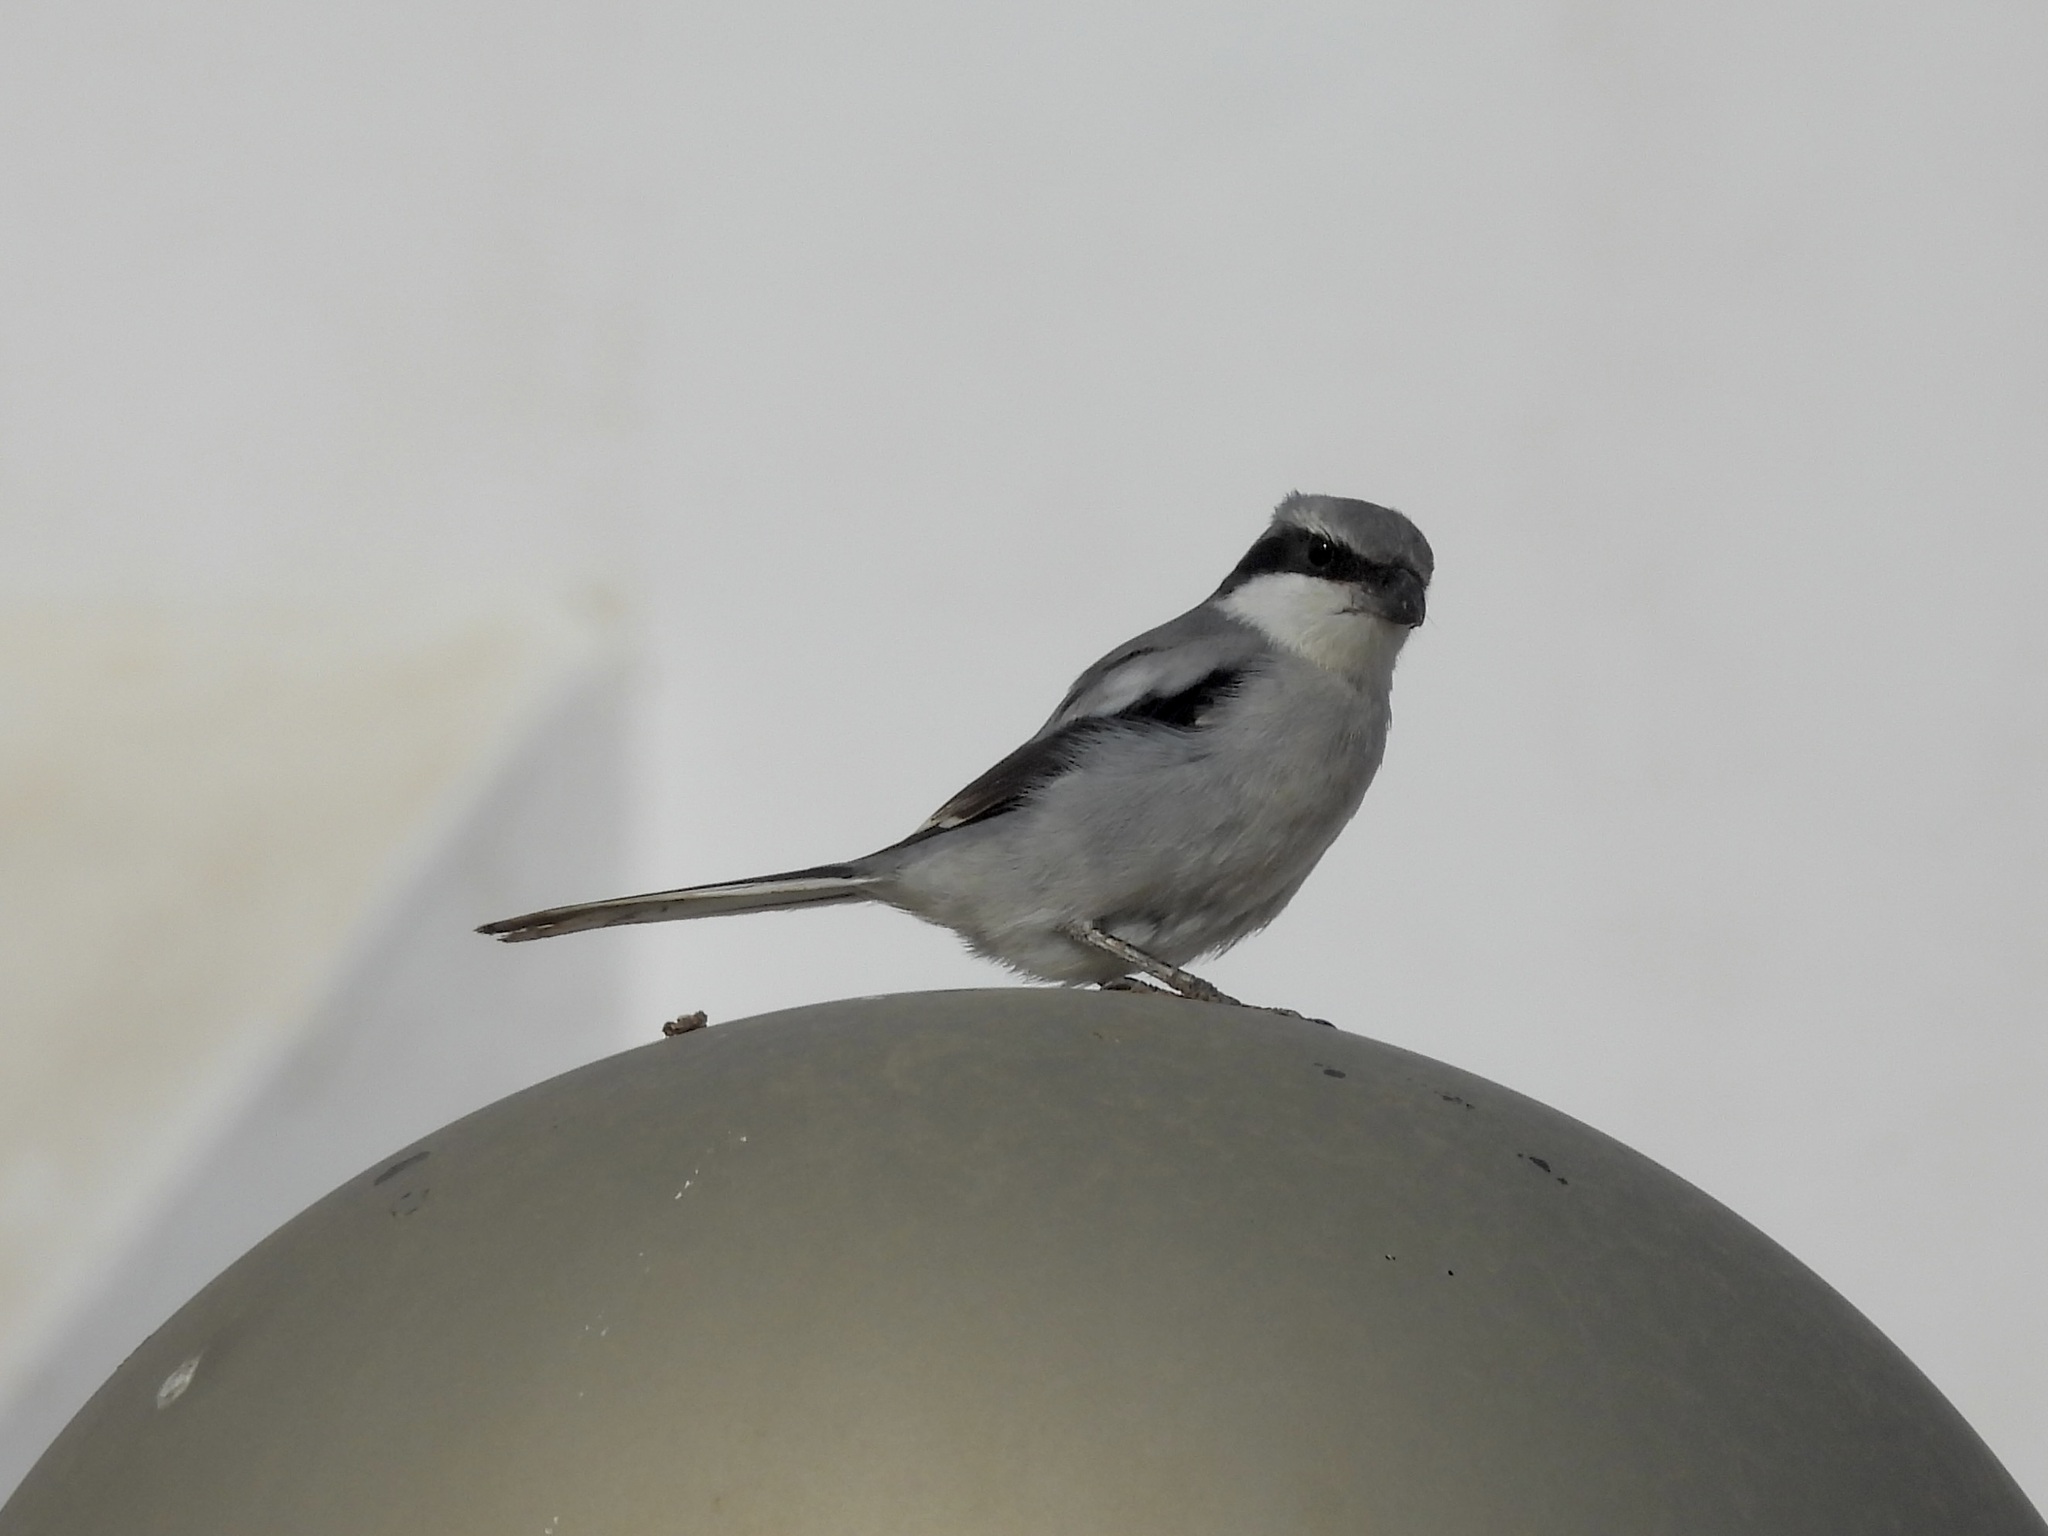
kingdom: Animalia
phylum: Chordata
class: Aves
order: Passeriformes
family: Laniidae
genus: Lanius
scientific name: Lanius excubitor
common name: Great grey shrike
